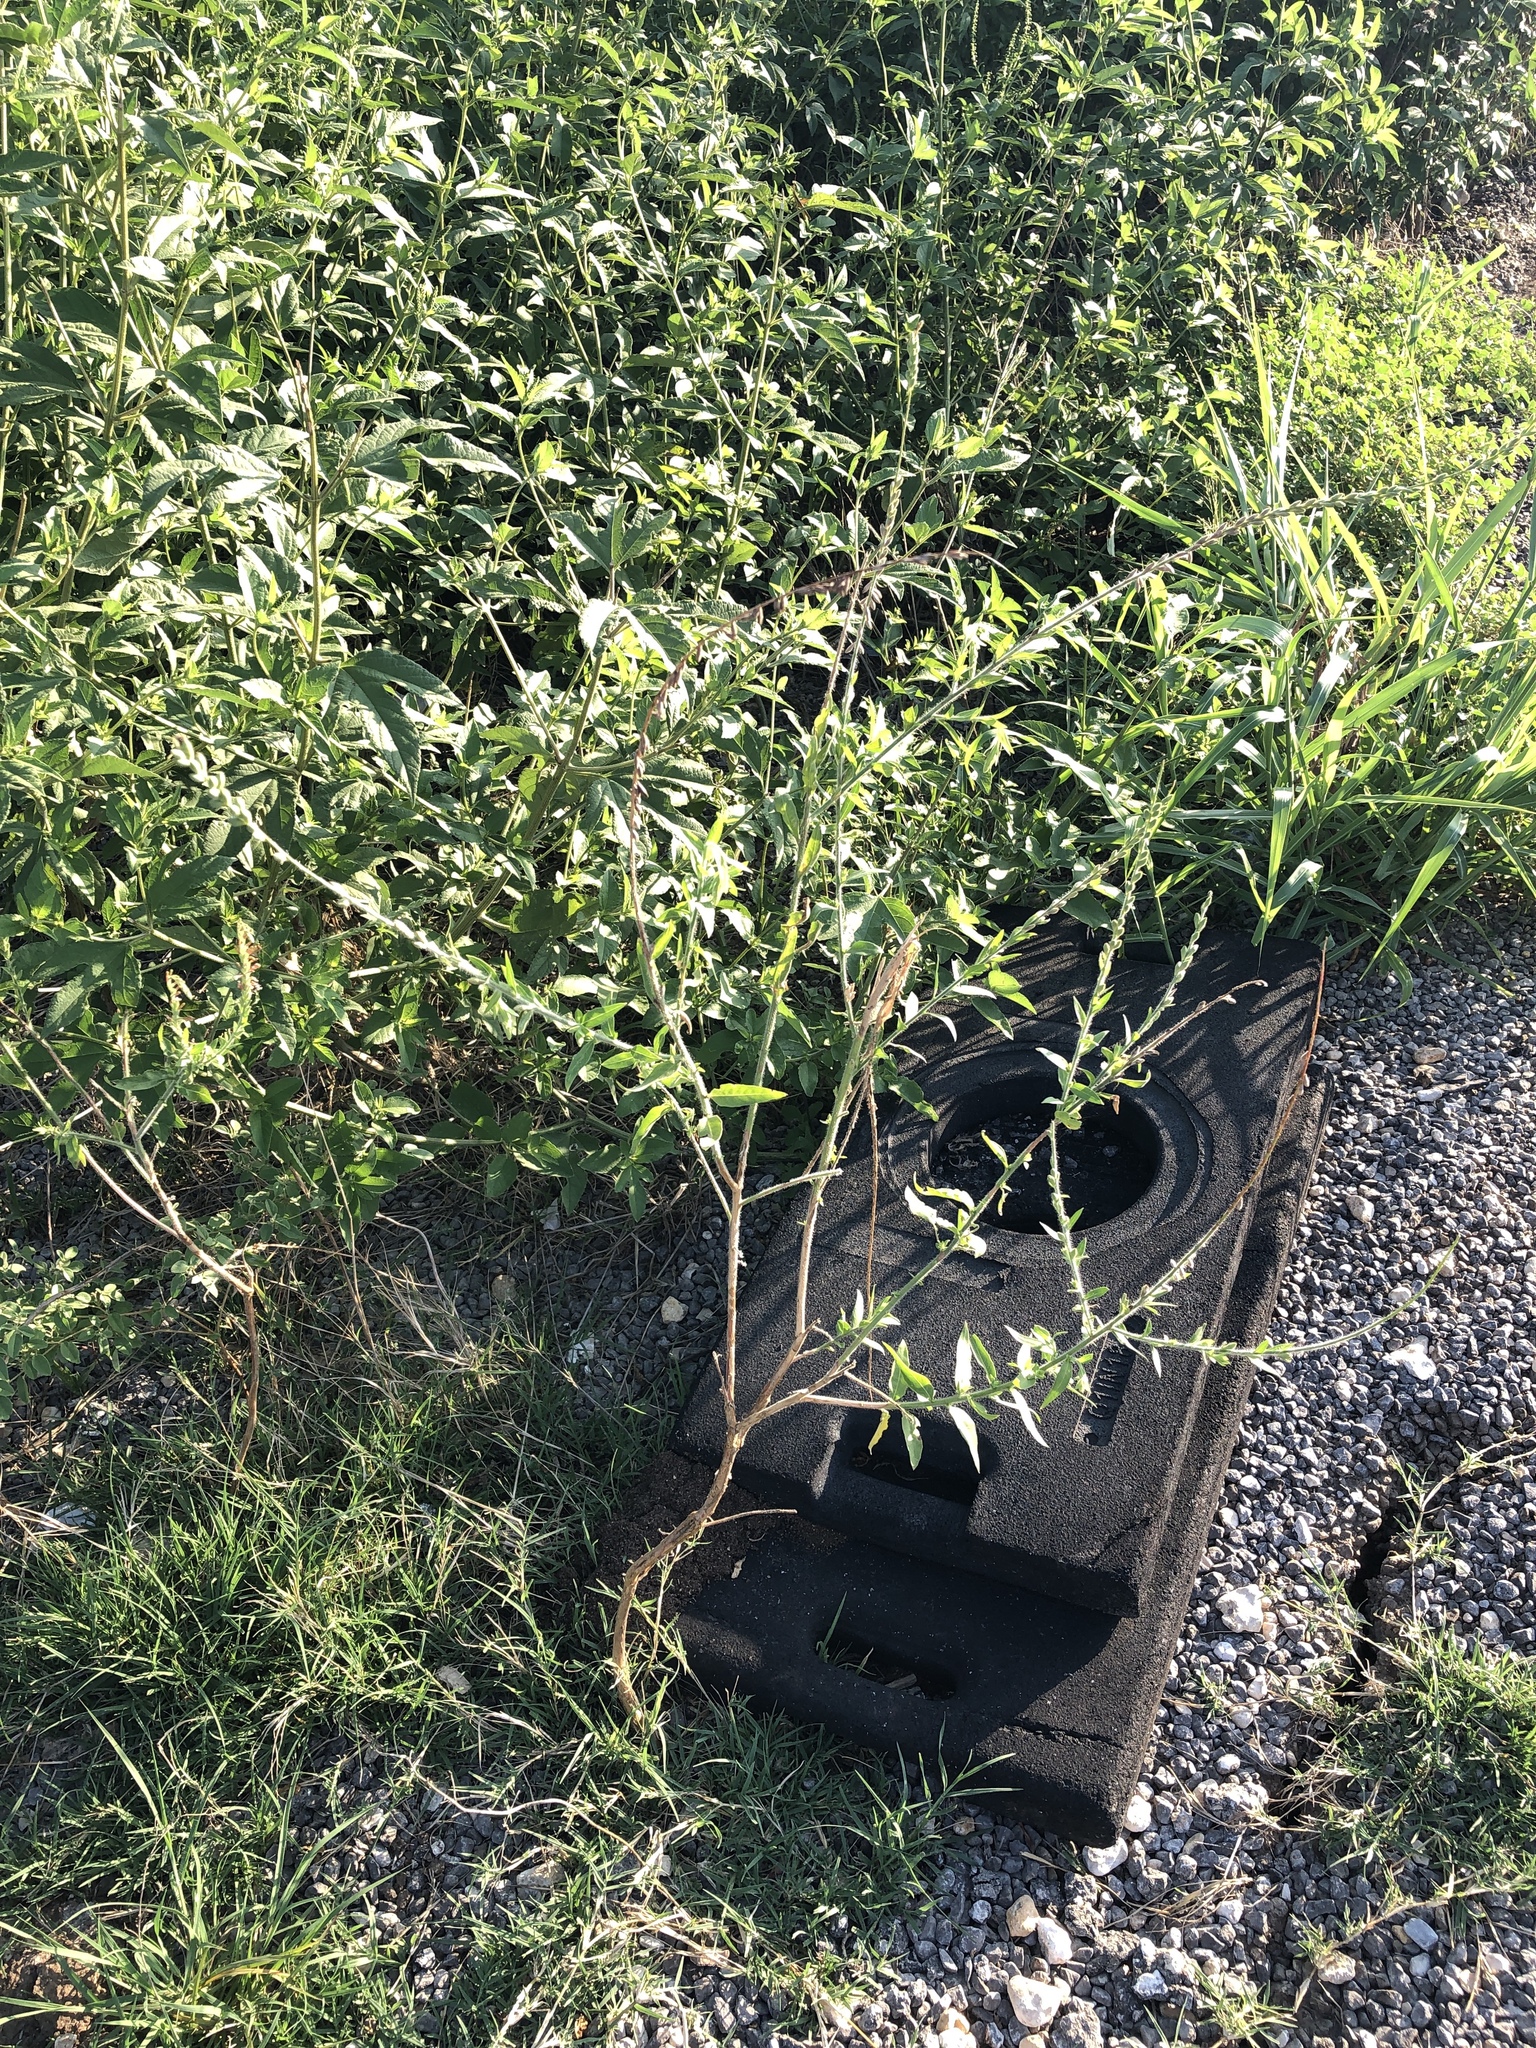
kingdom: Plantae
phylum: Tracheophyta
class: Magnoliopsida
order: Myrtales
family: Onagraceae
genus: Oenothera
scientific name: Oenothera curtiflora
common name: Velvetweed
